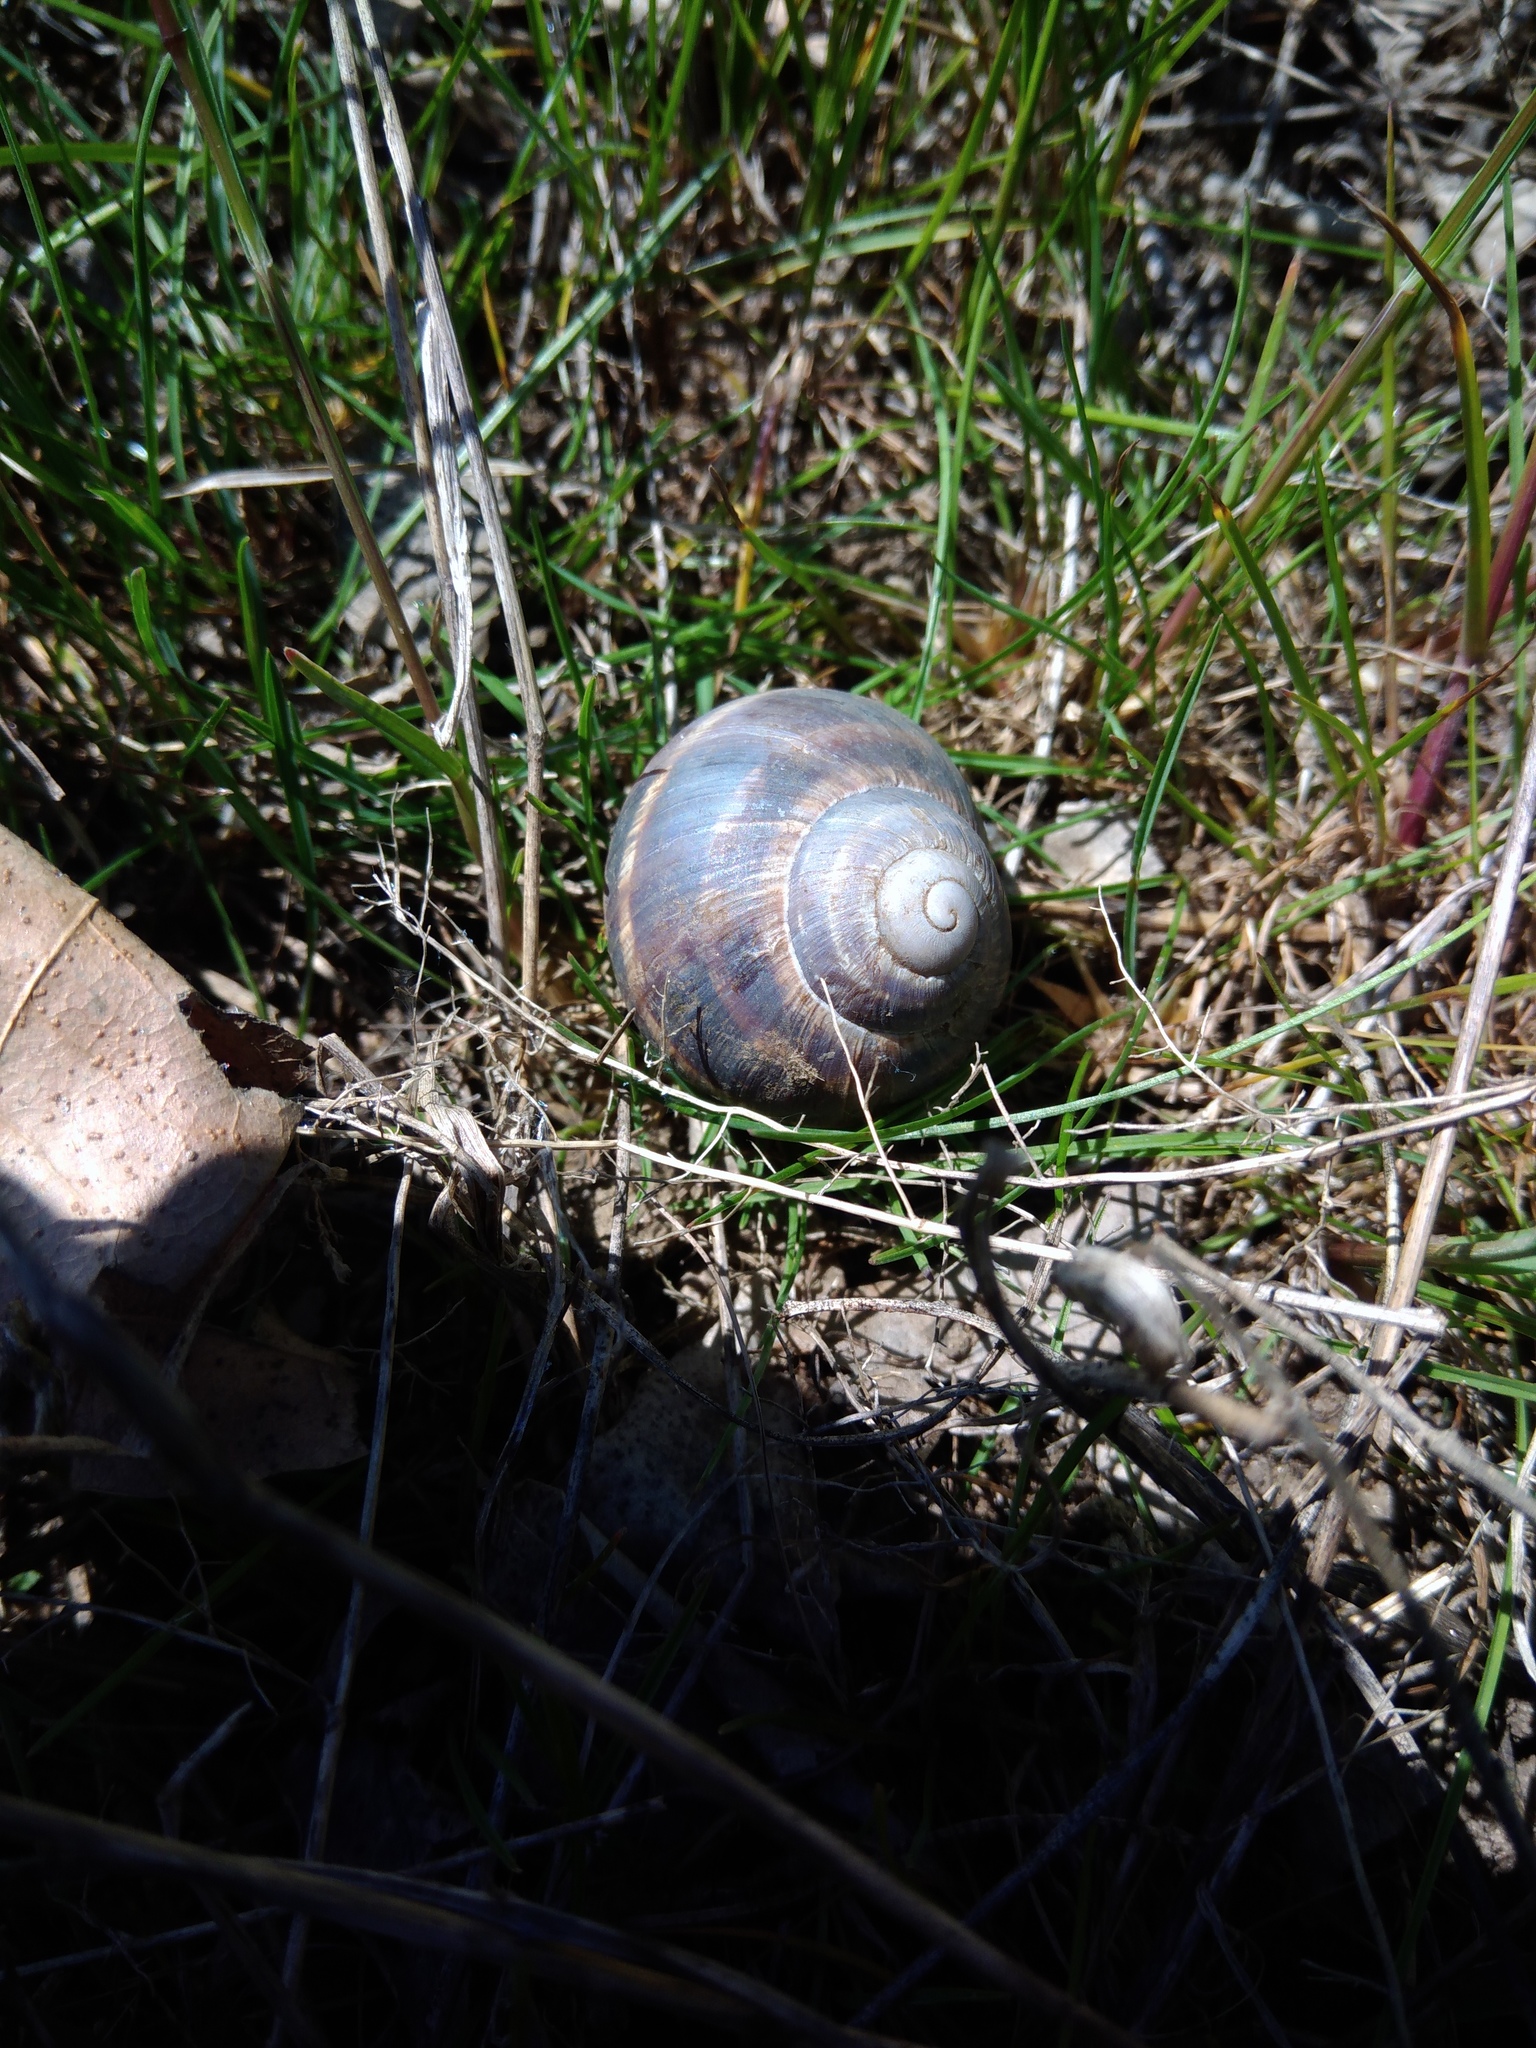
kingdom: Animalia
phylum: Mollusca
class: Gastropoda
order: Stylommatophora
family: Helicidae
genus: Helix
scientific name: Helix albescens
